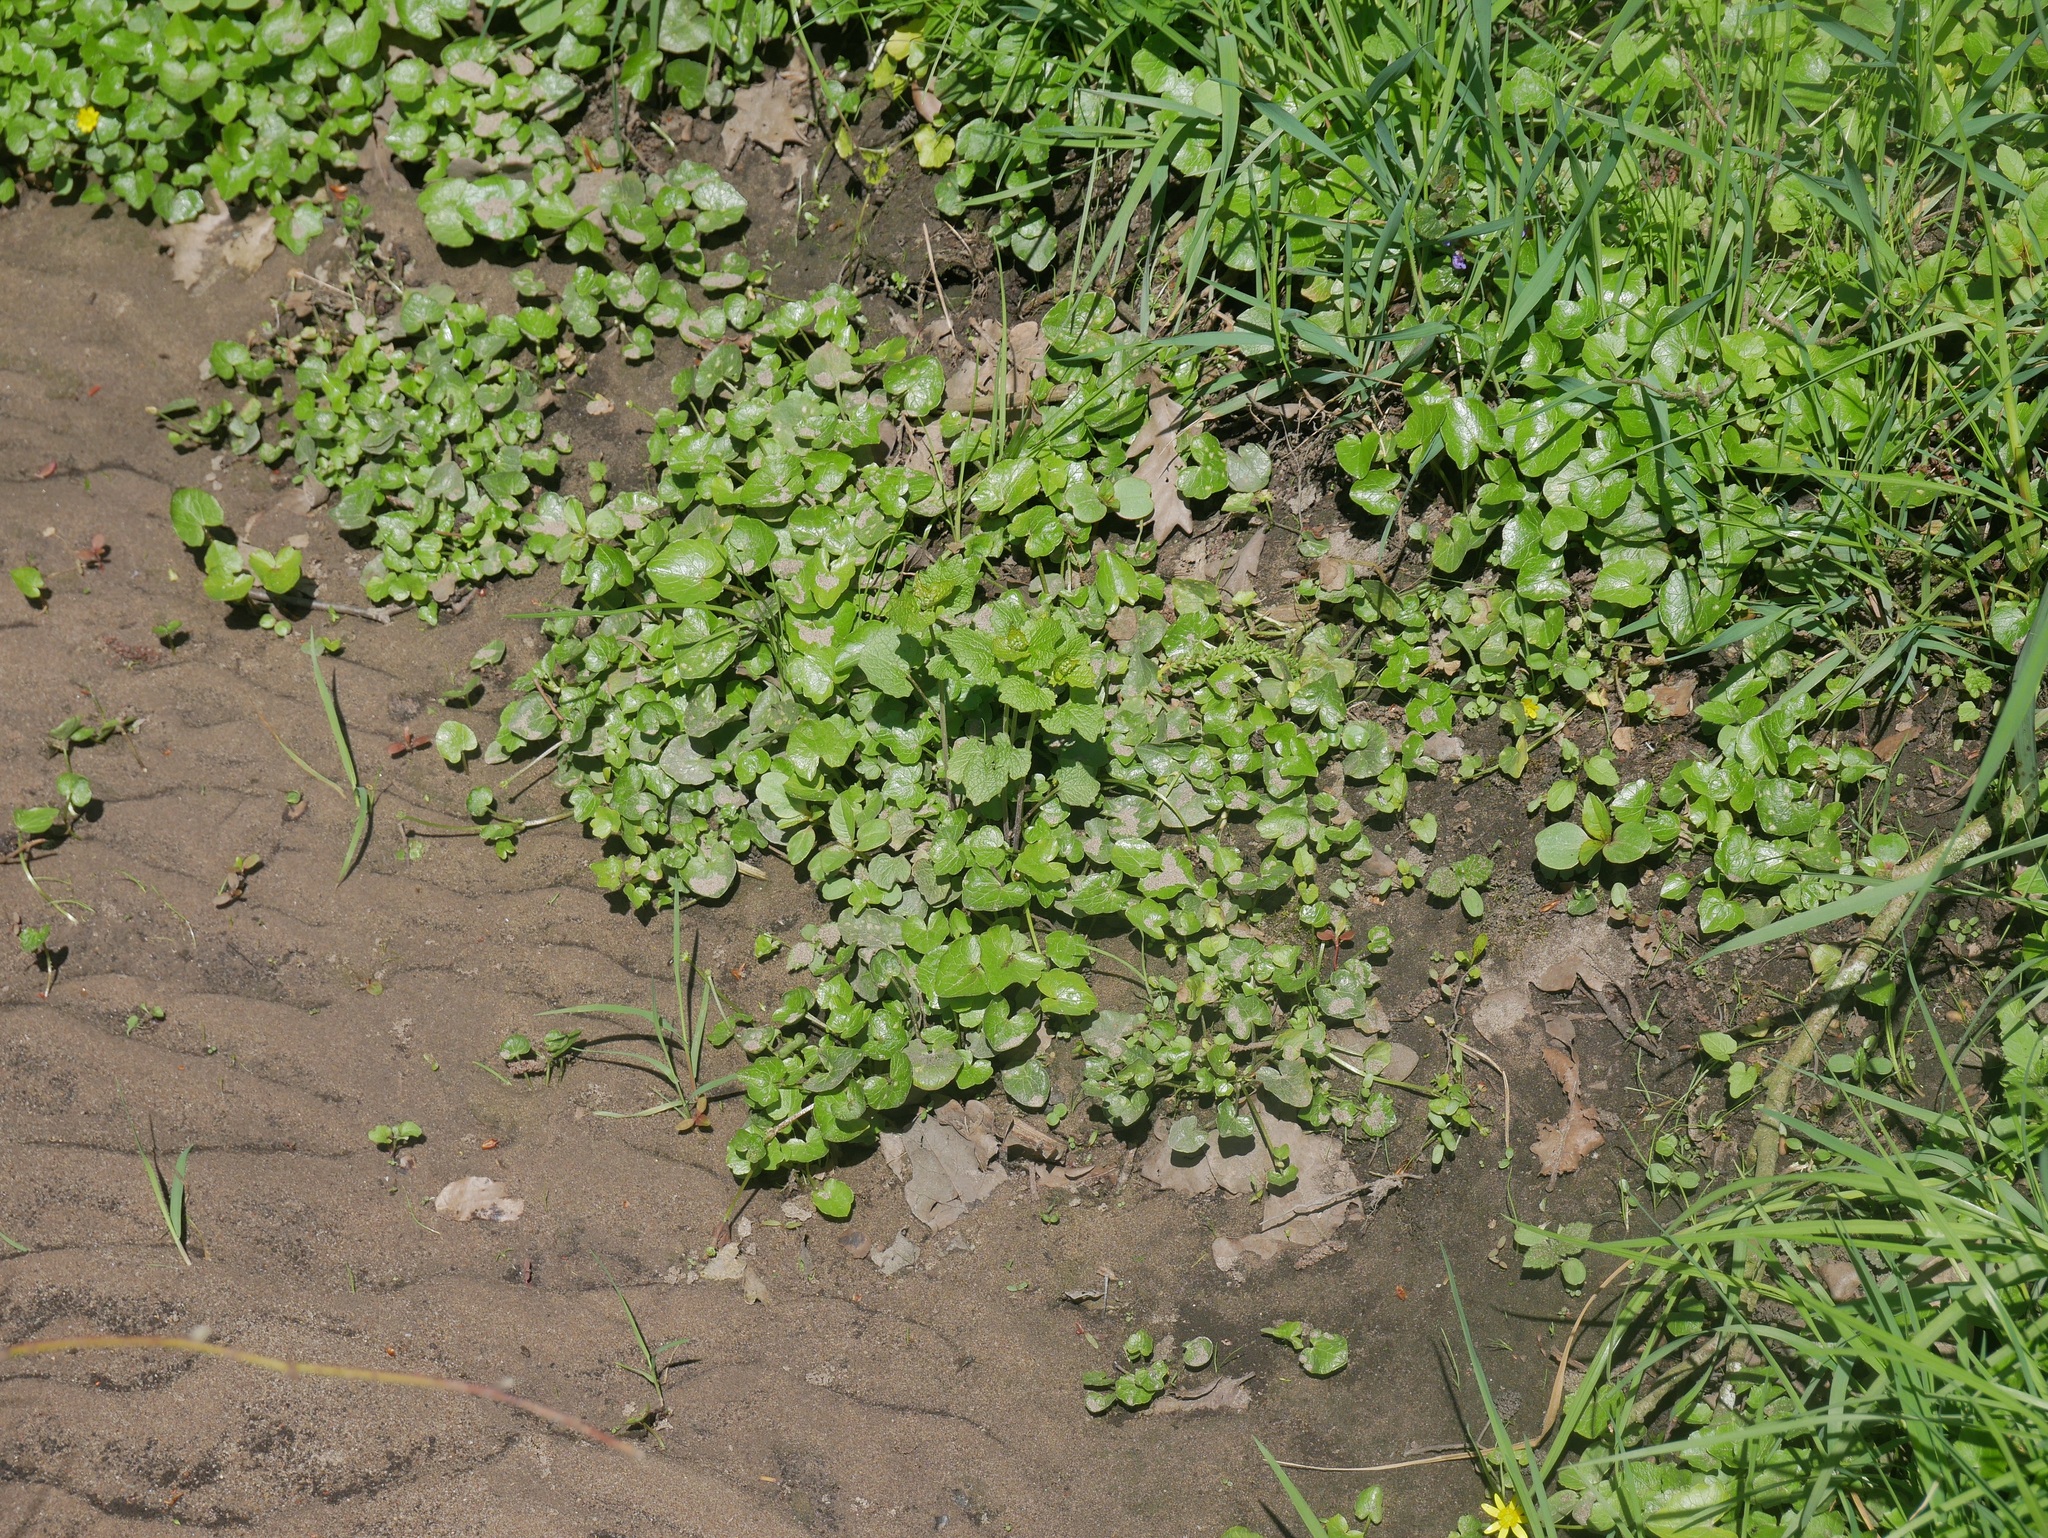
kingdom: Plantae
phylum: Tracheophyta
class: Magnoliopsida
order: Ranunculales
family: Ranunculaceae
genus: Ficaria
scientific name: Ficaria verna
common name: Lesser celandine
